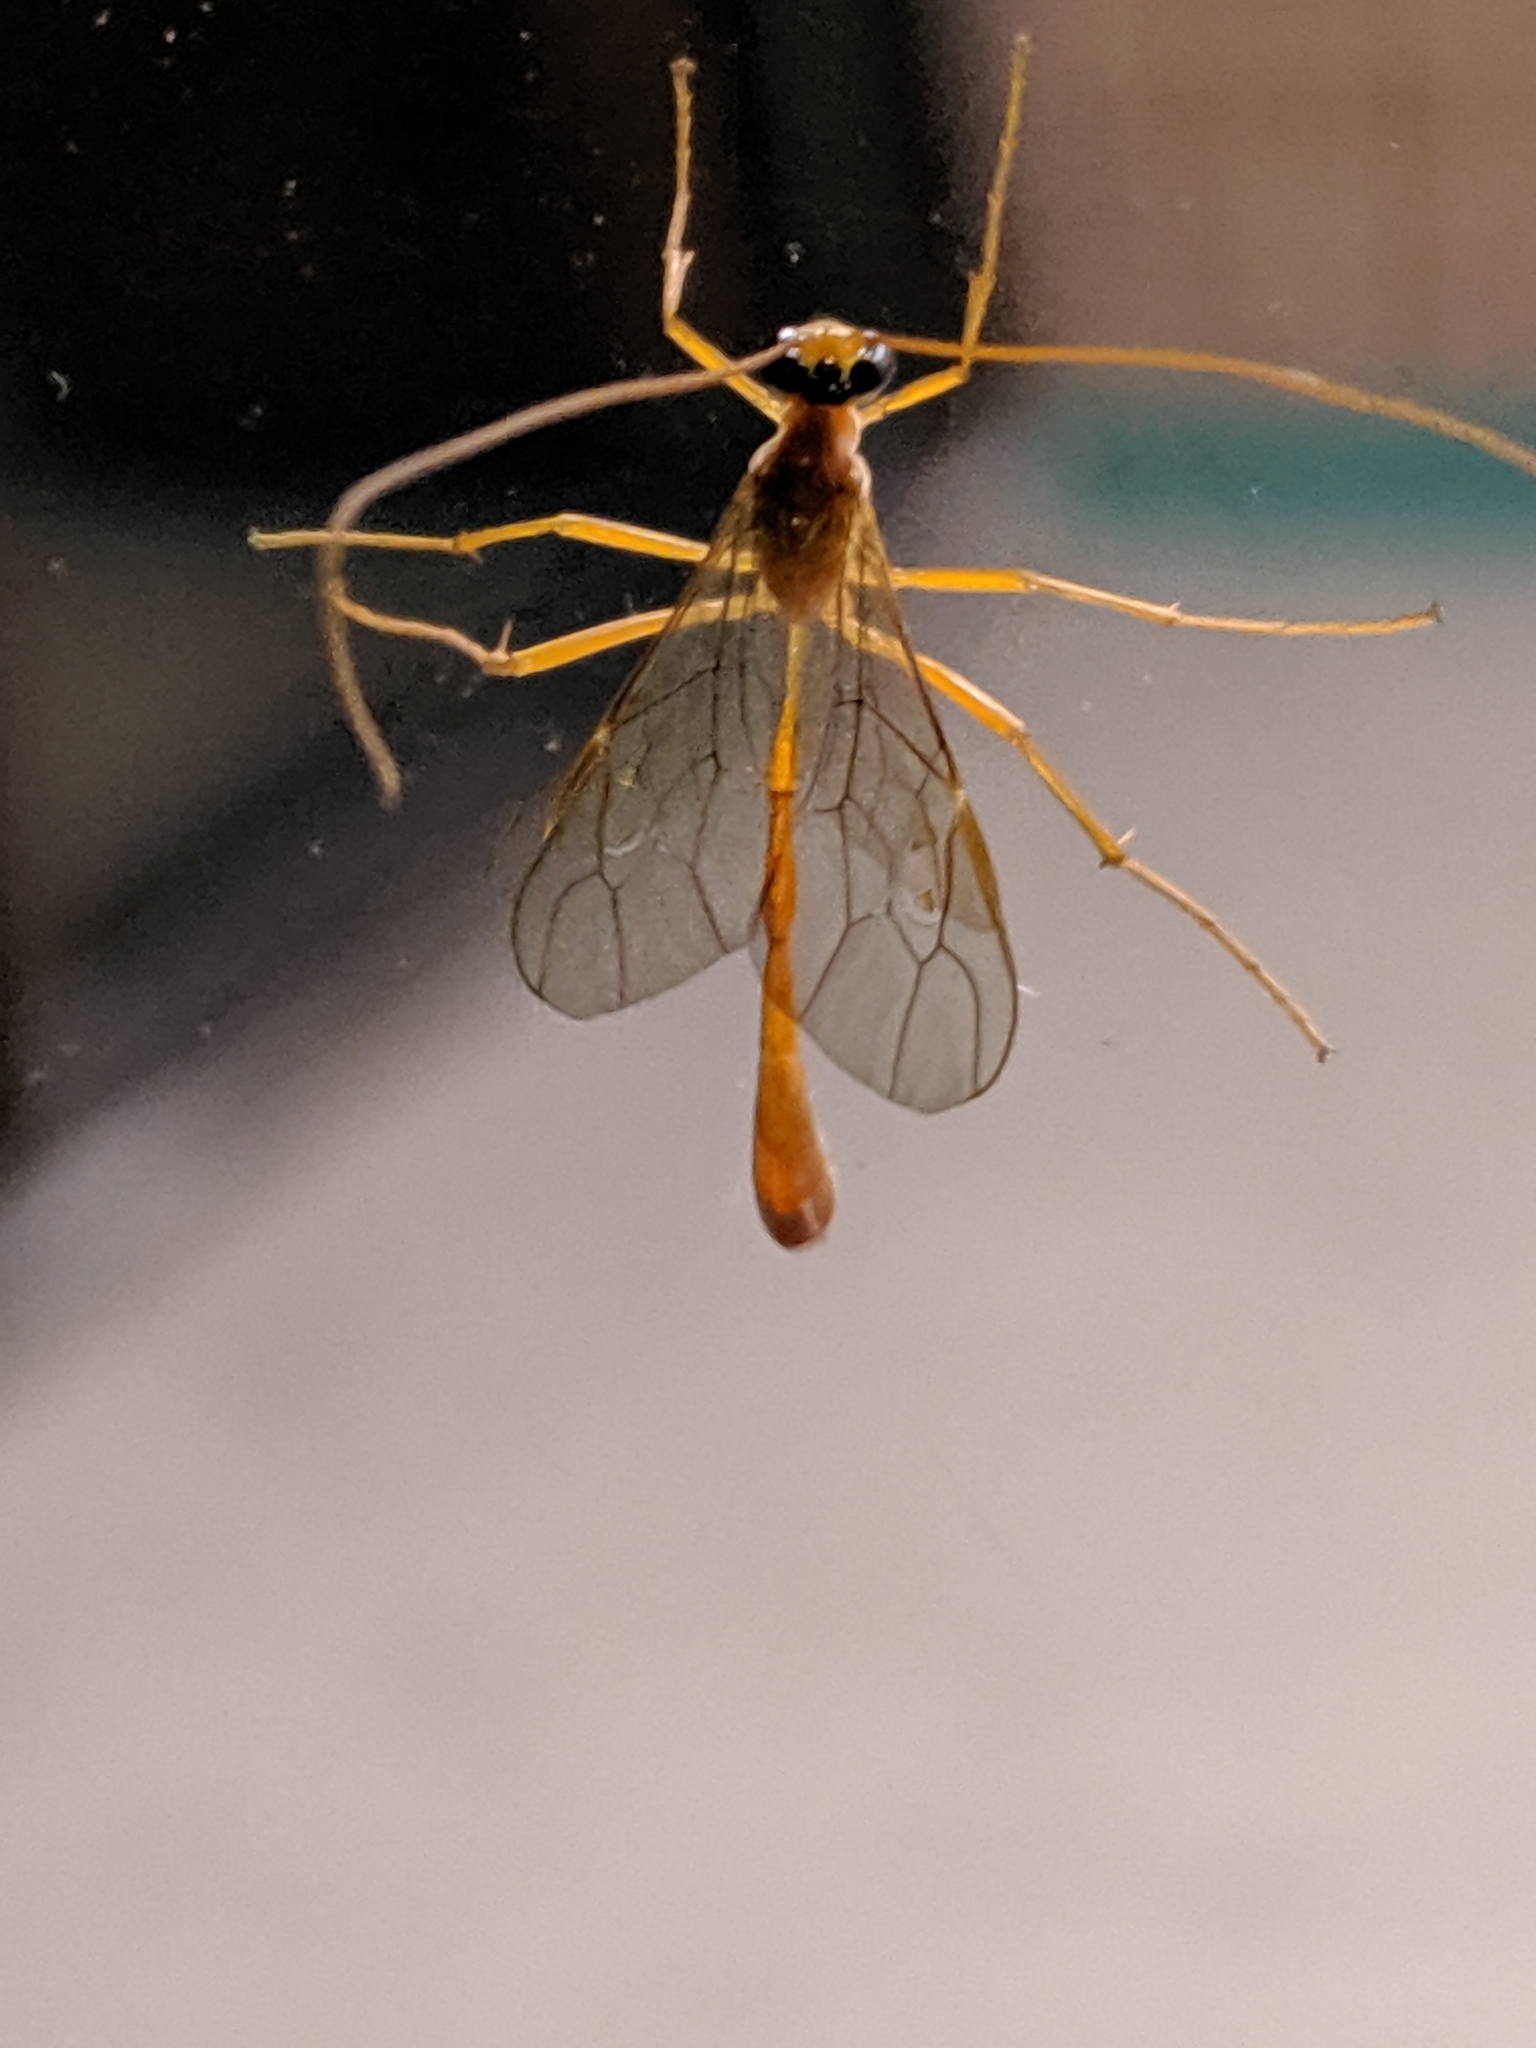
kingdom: Animalia
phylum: Arthropoda
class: Insecta
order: Hymenoptera
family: Ichneumonidae
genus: Enicospilus
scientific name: Enicospilus purgatus
